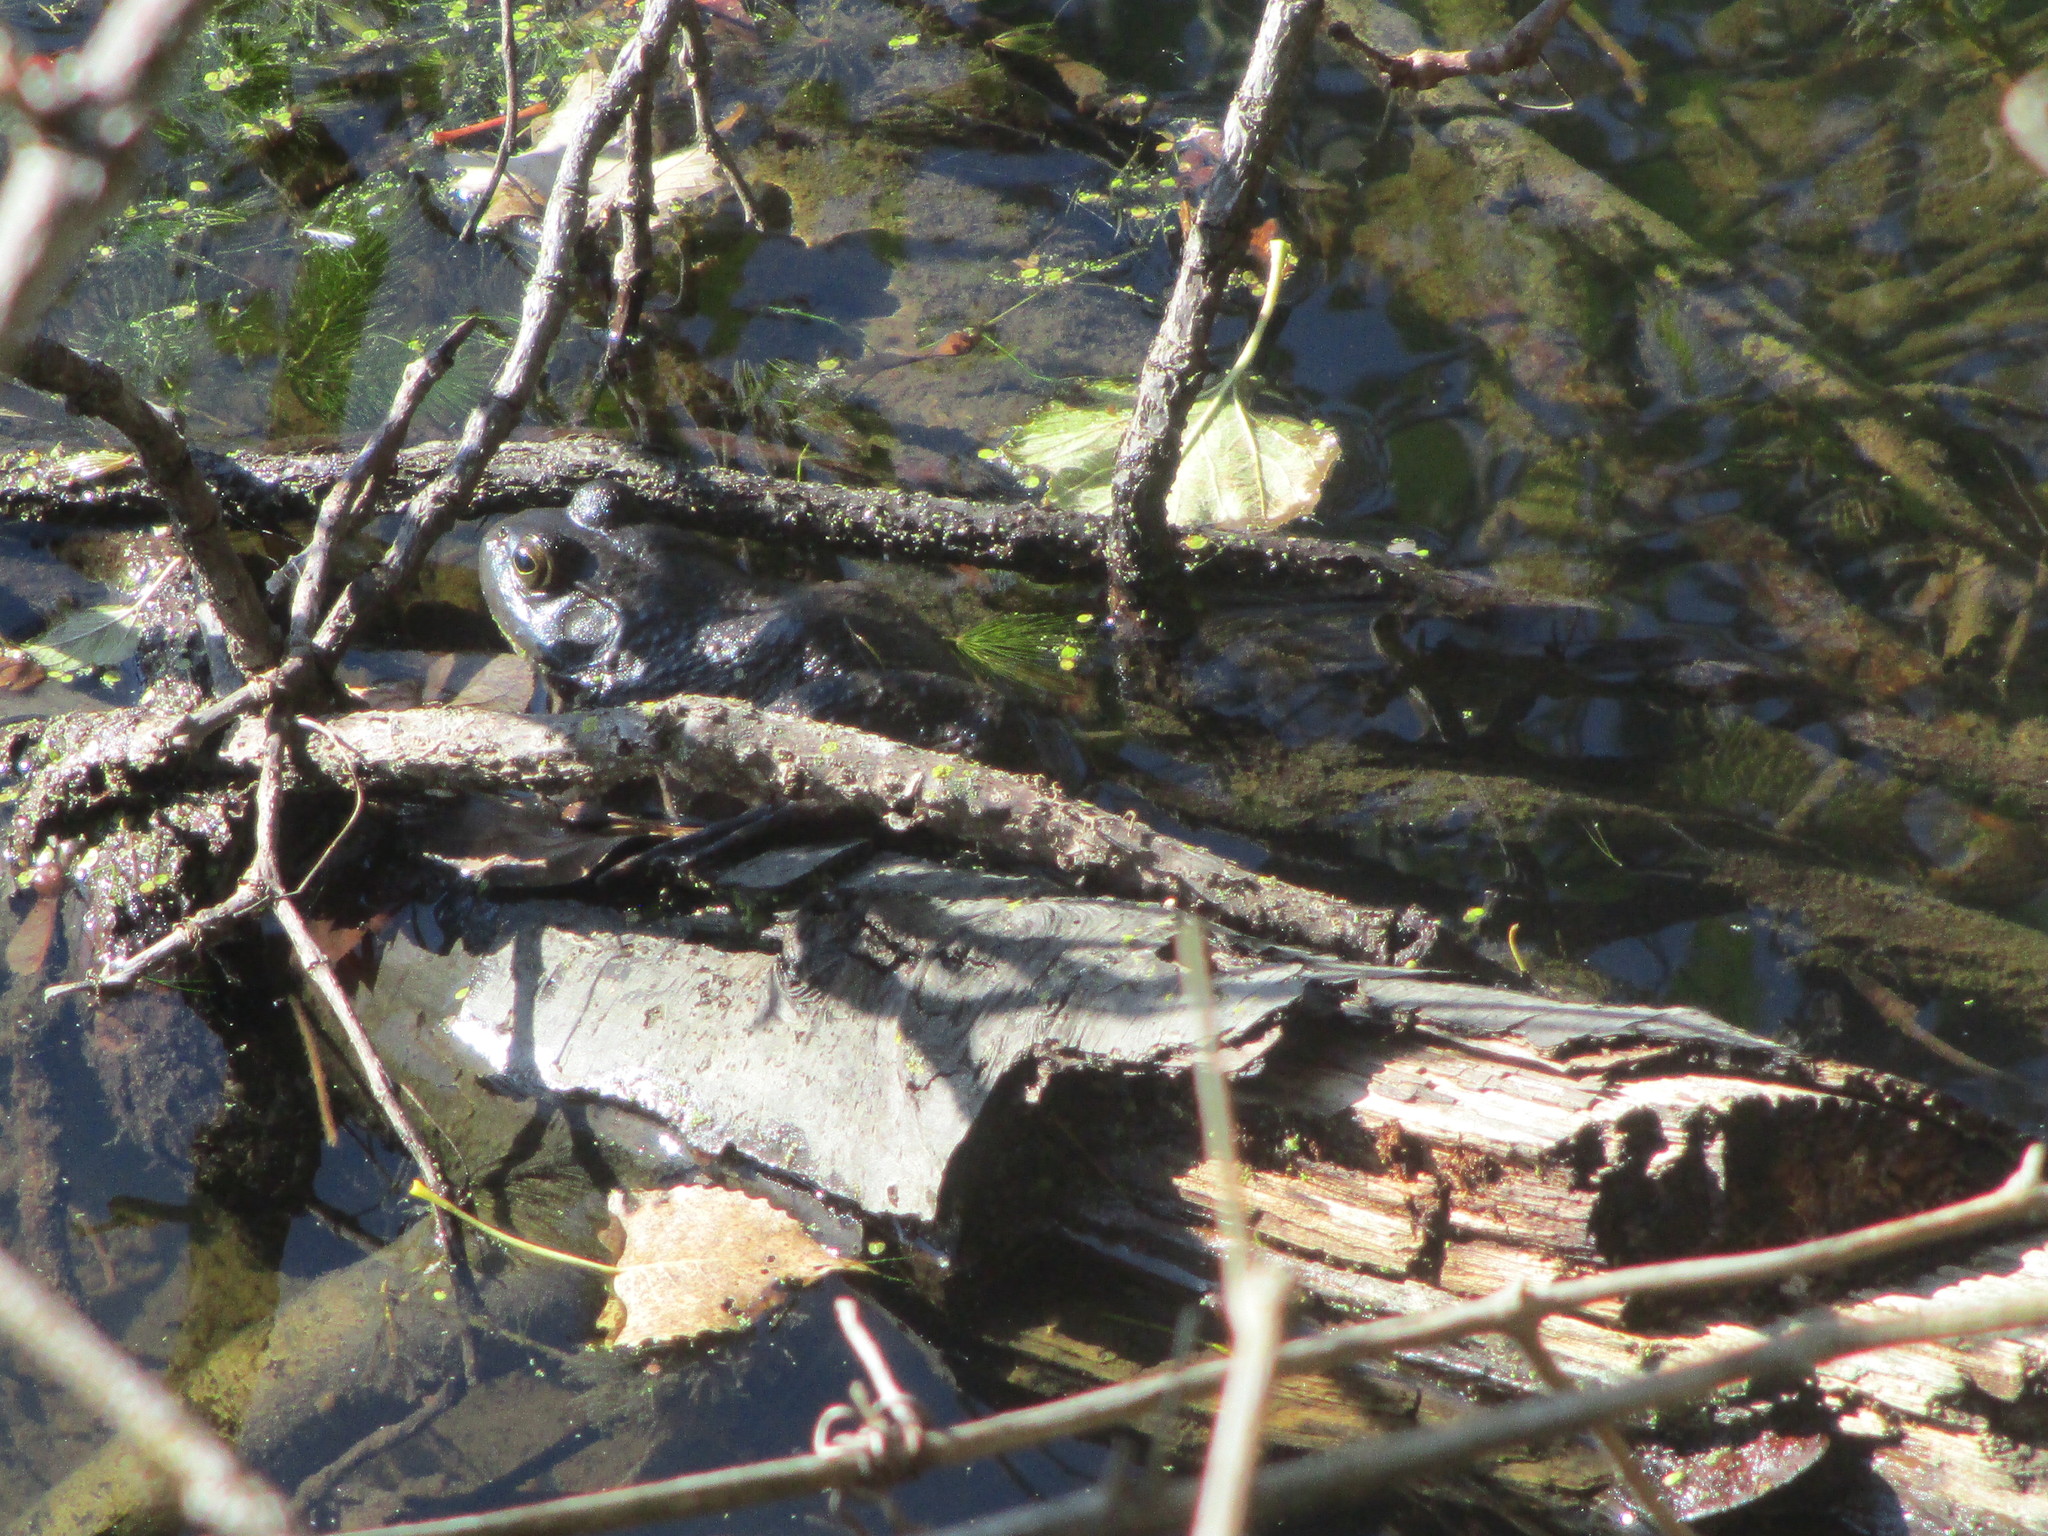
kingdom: Animalia
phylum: Chordata
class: Amphibia
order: Anura
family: Ranidae
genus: Lithobates
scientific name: Lithobates catesbeianus
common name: American bullfrog
